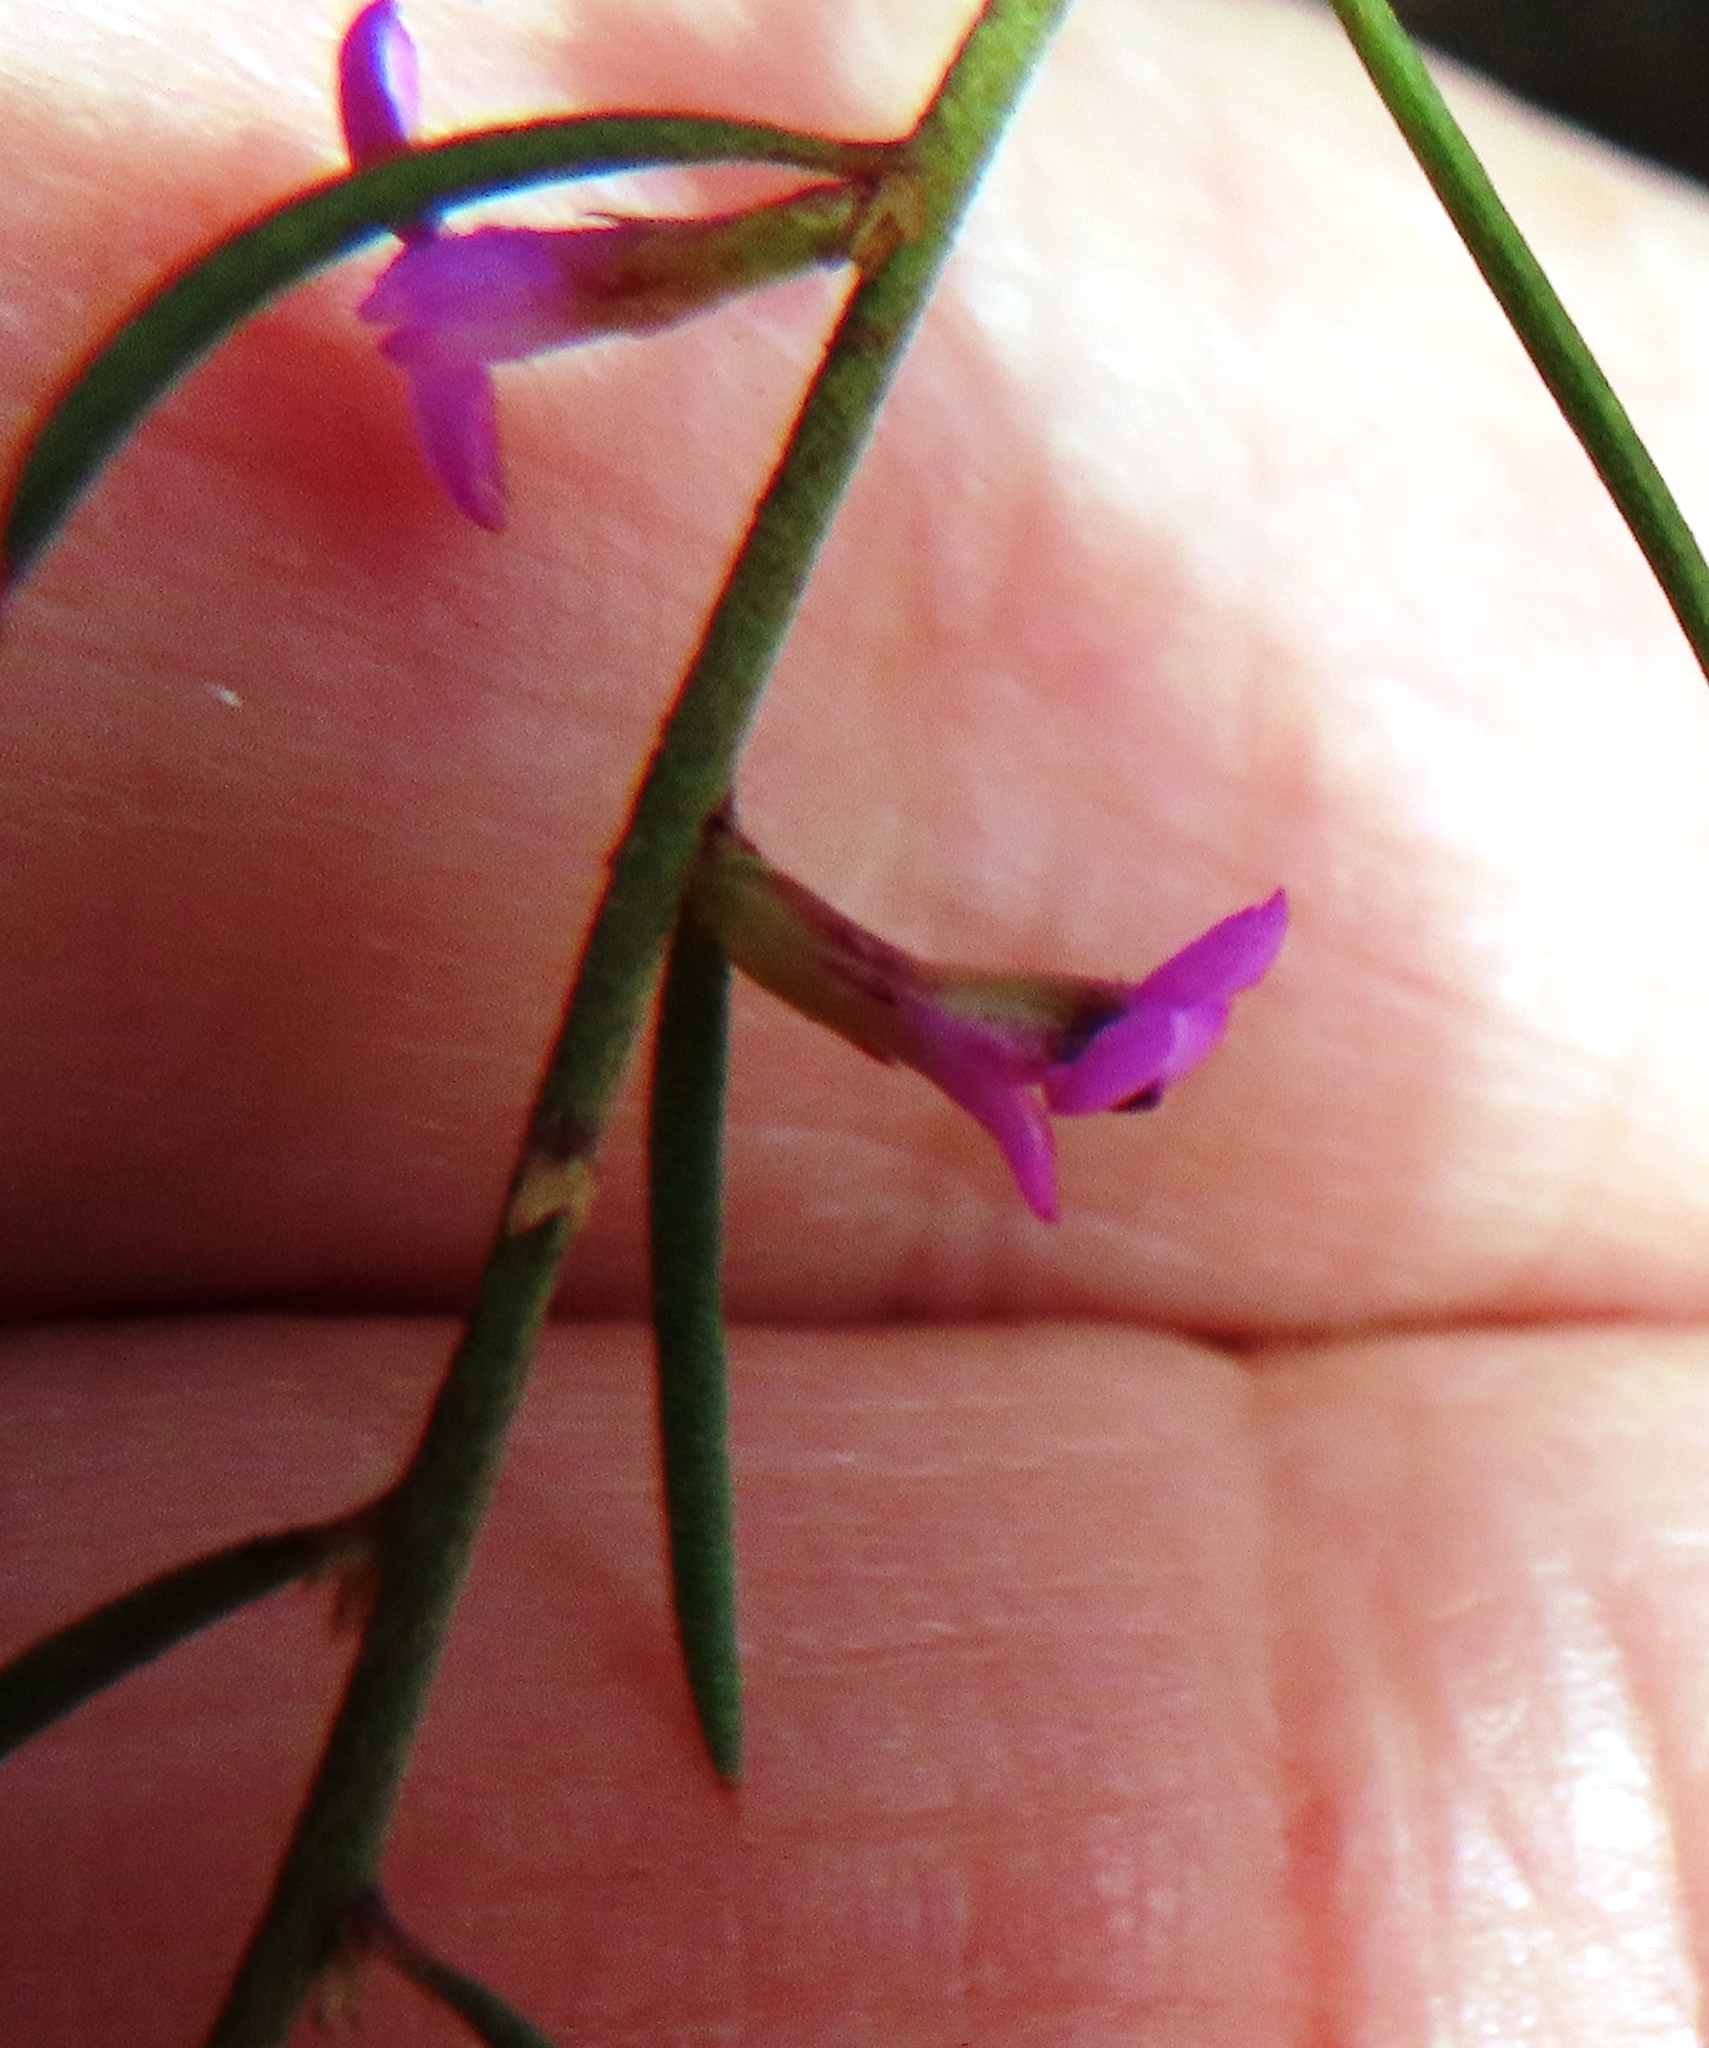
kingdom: Plantae
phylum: Tracheophyta
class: Magnoliopsida
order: Fabales
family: Polygalaceae
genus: Muraltia
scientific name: Muraltia filiformis
